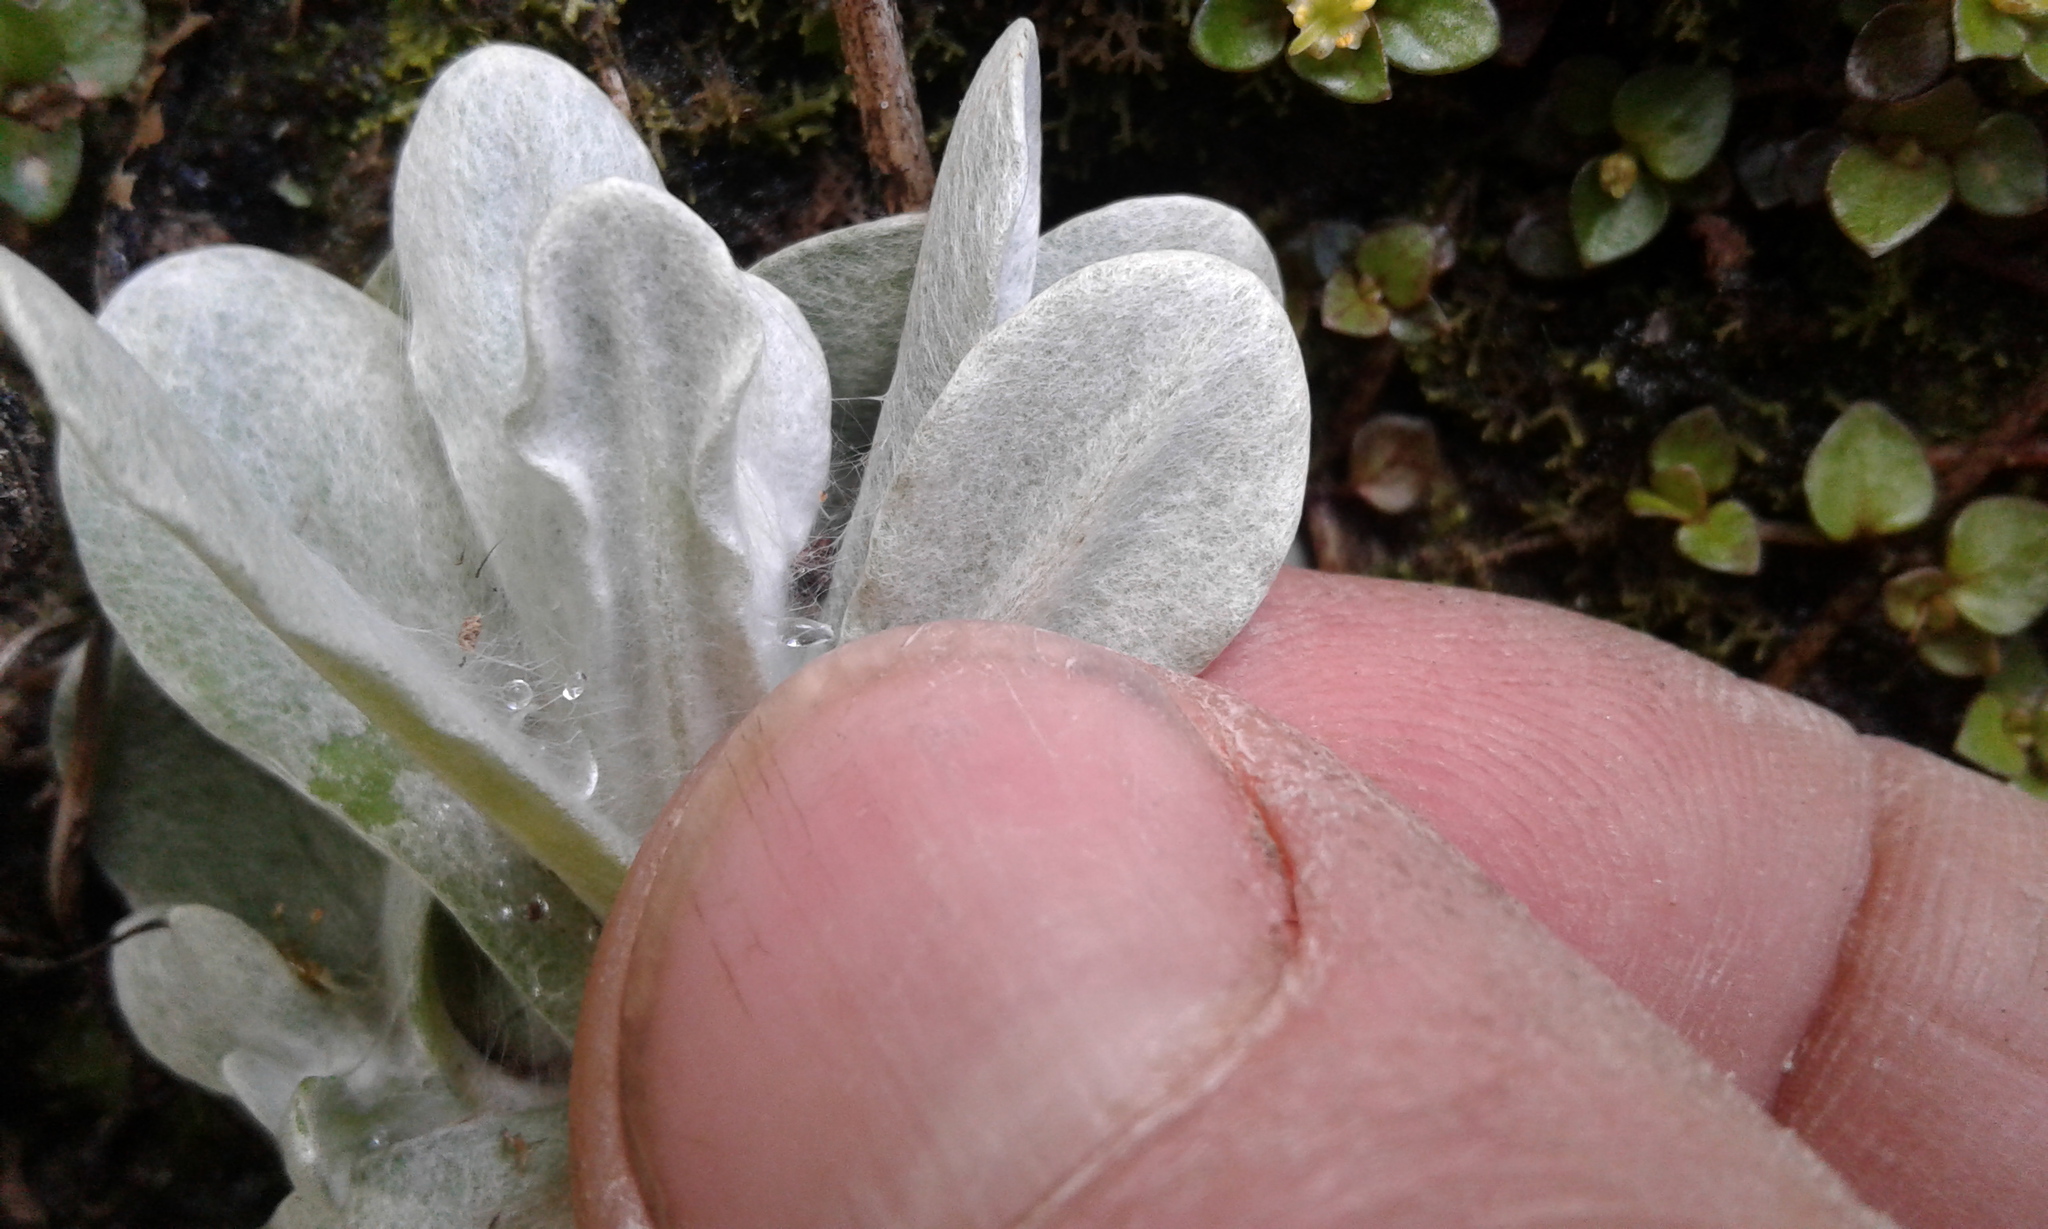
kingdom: Plantae
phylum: Tracheophyta
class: Magnoliopsida
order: Asterales
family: Asteraceae
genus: Helichrysum
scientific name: Helichrysum luteoalbum
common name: Daisy
